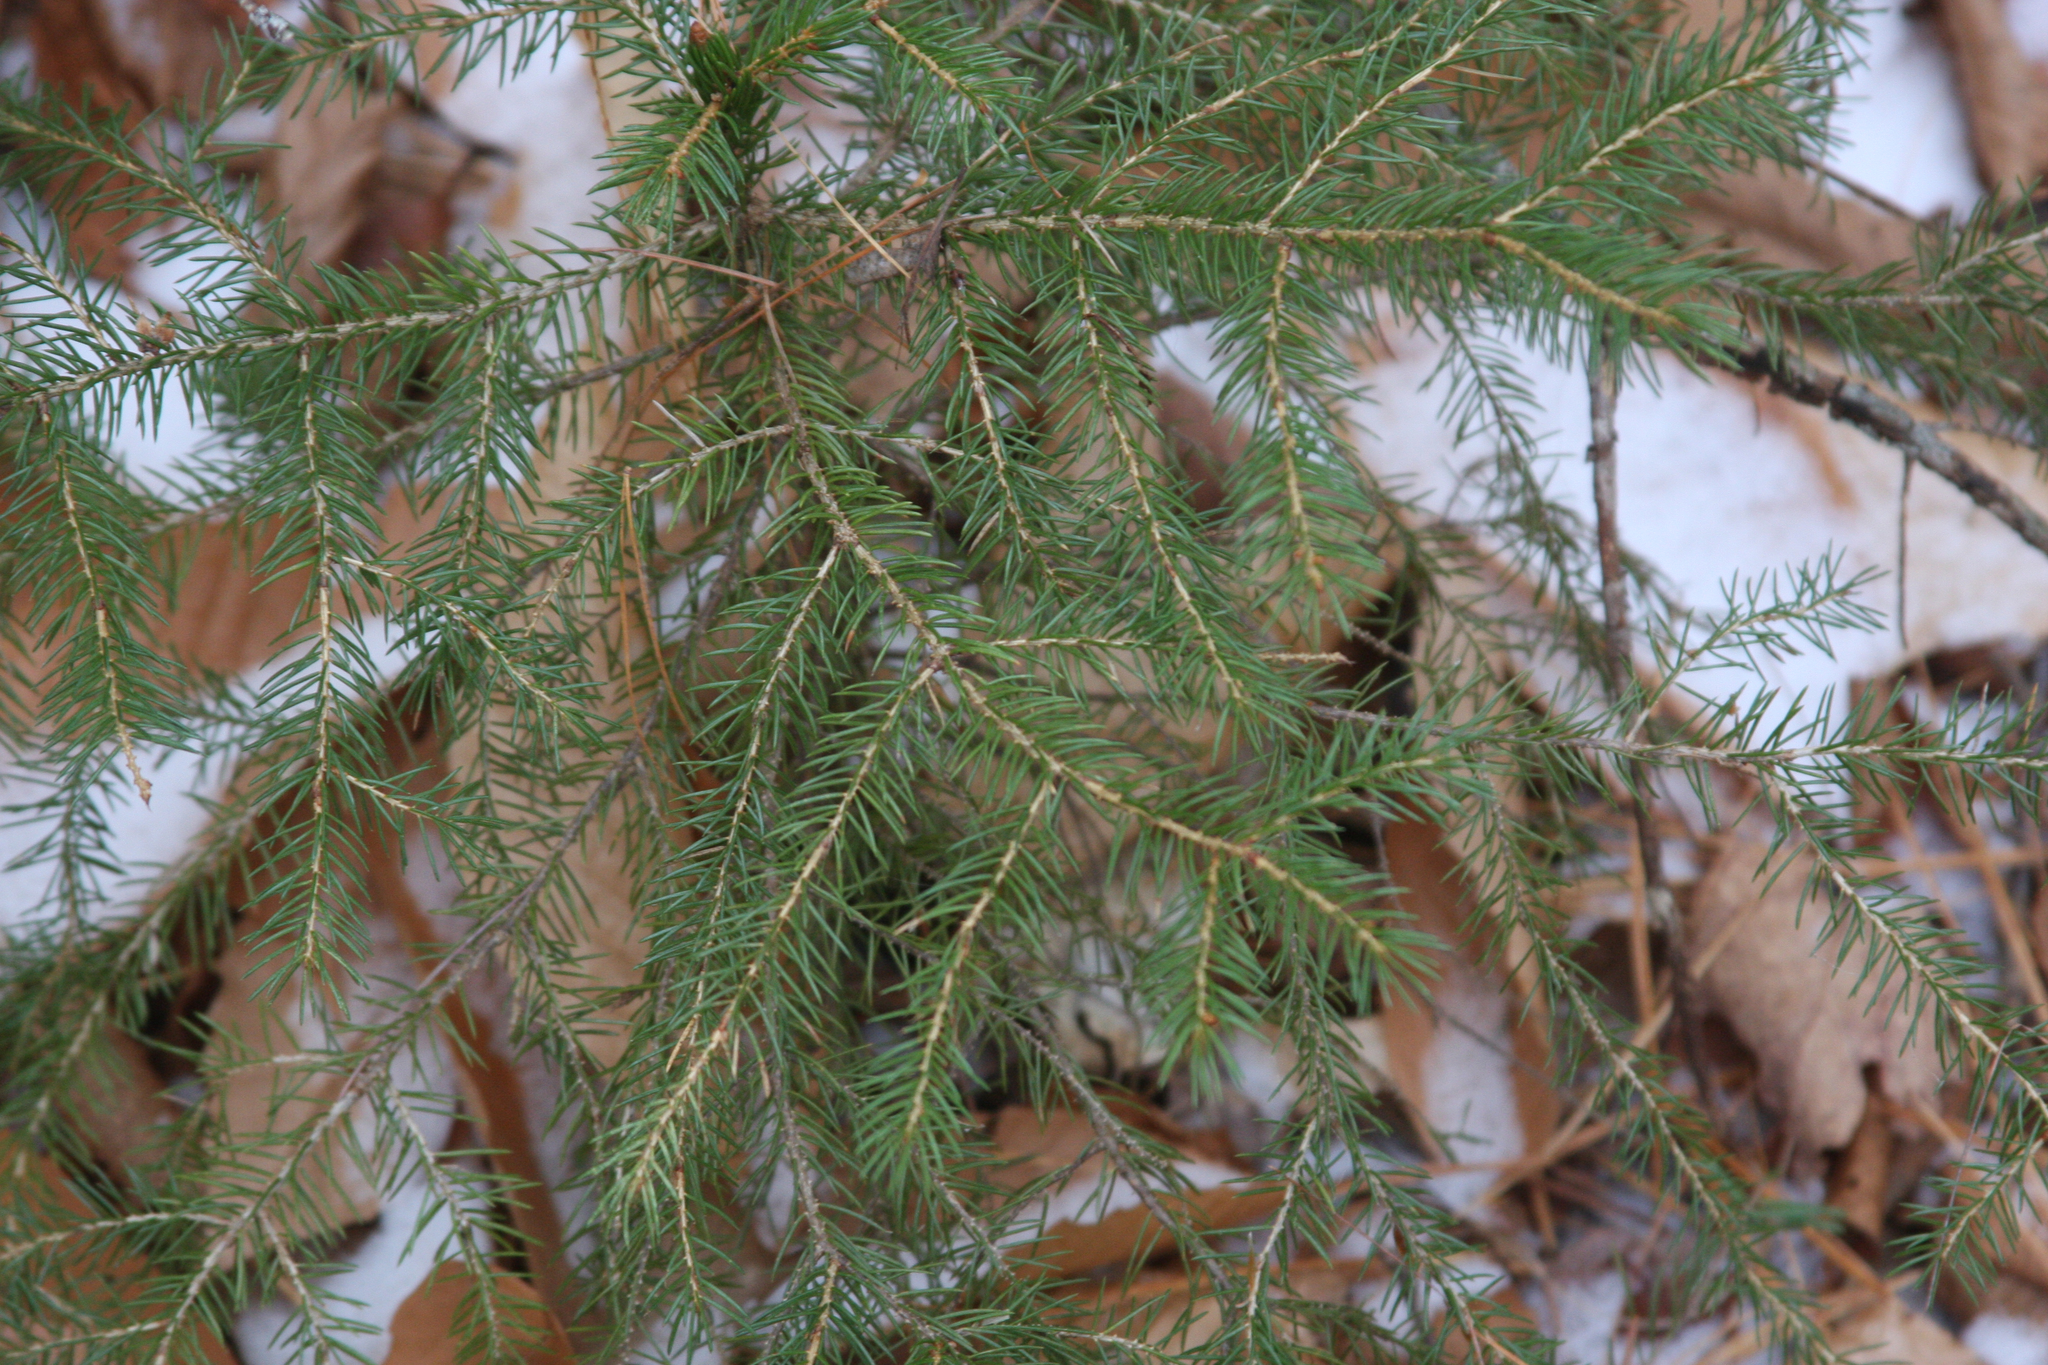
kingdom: Plantae
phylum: Tracheophyta
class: Pinopsida
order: Pinales
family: Pinaceae
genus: Picea
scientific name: Picea rubens
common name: Red spruce
